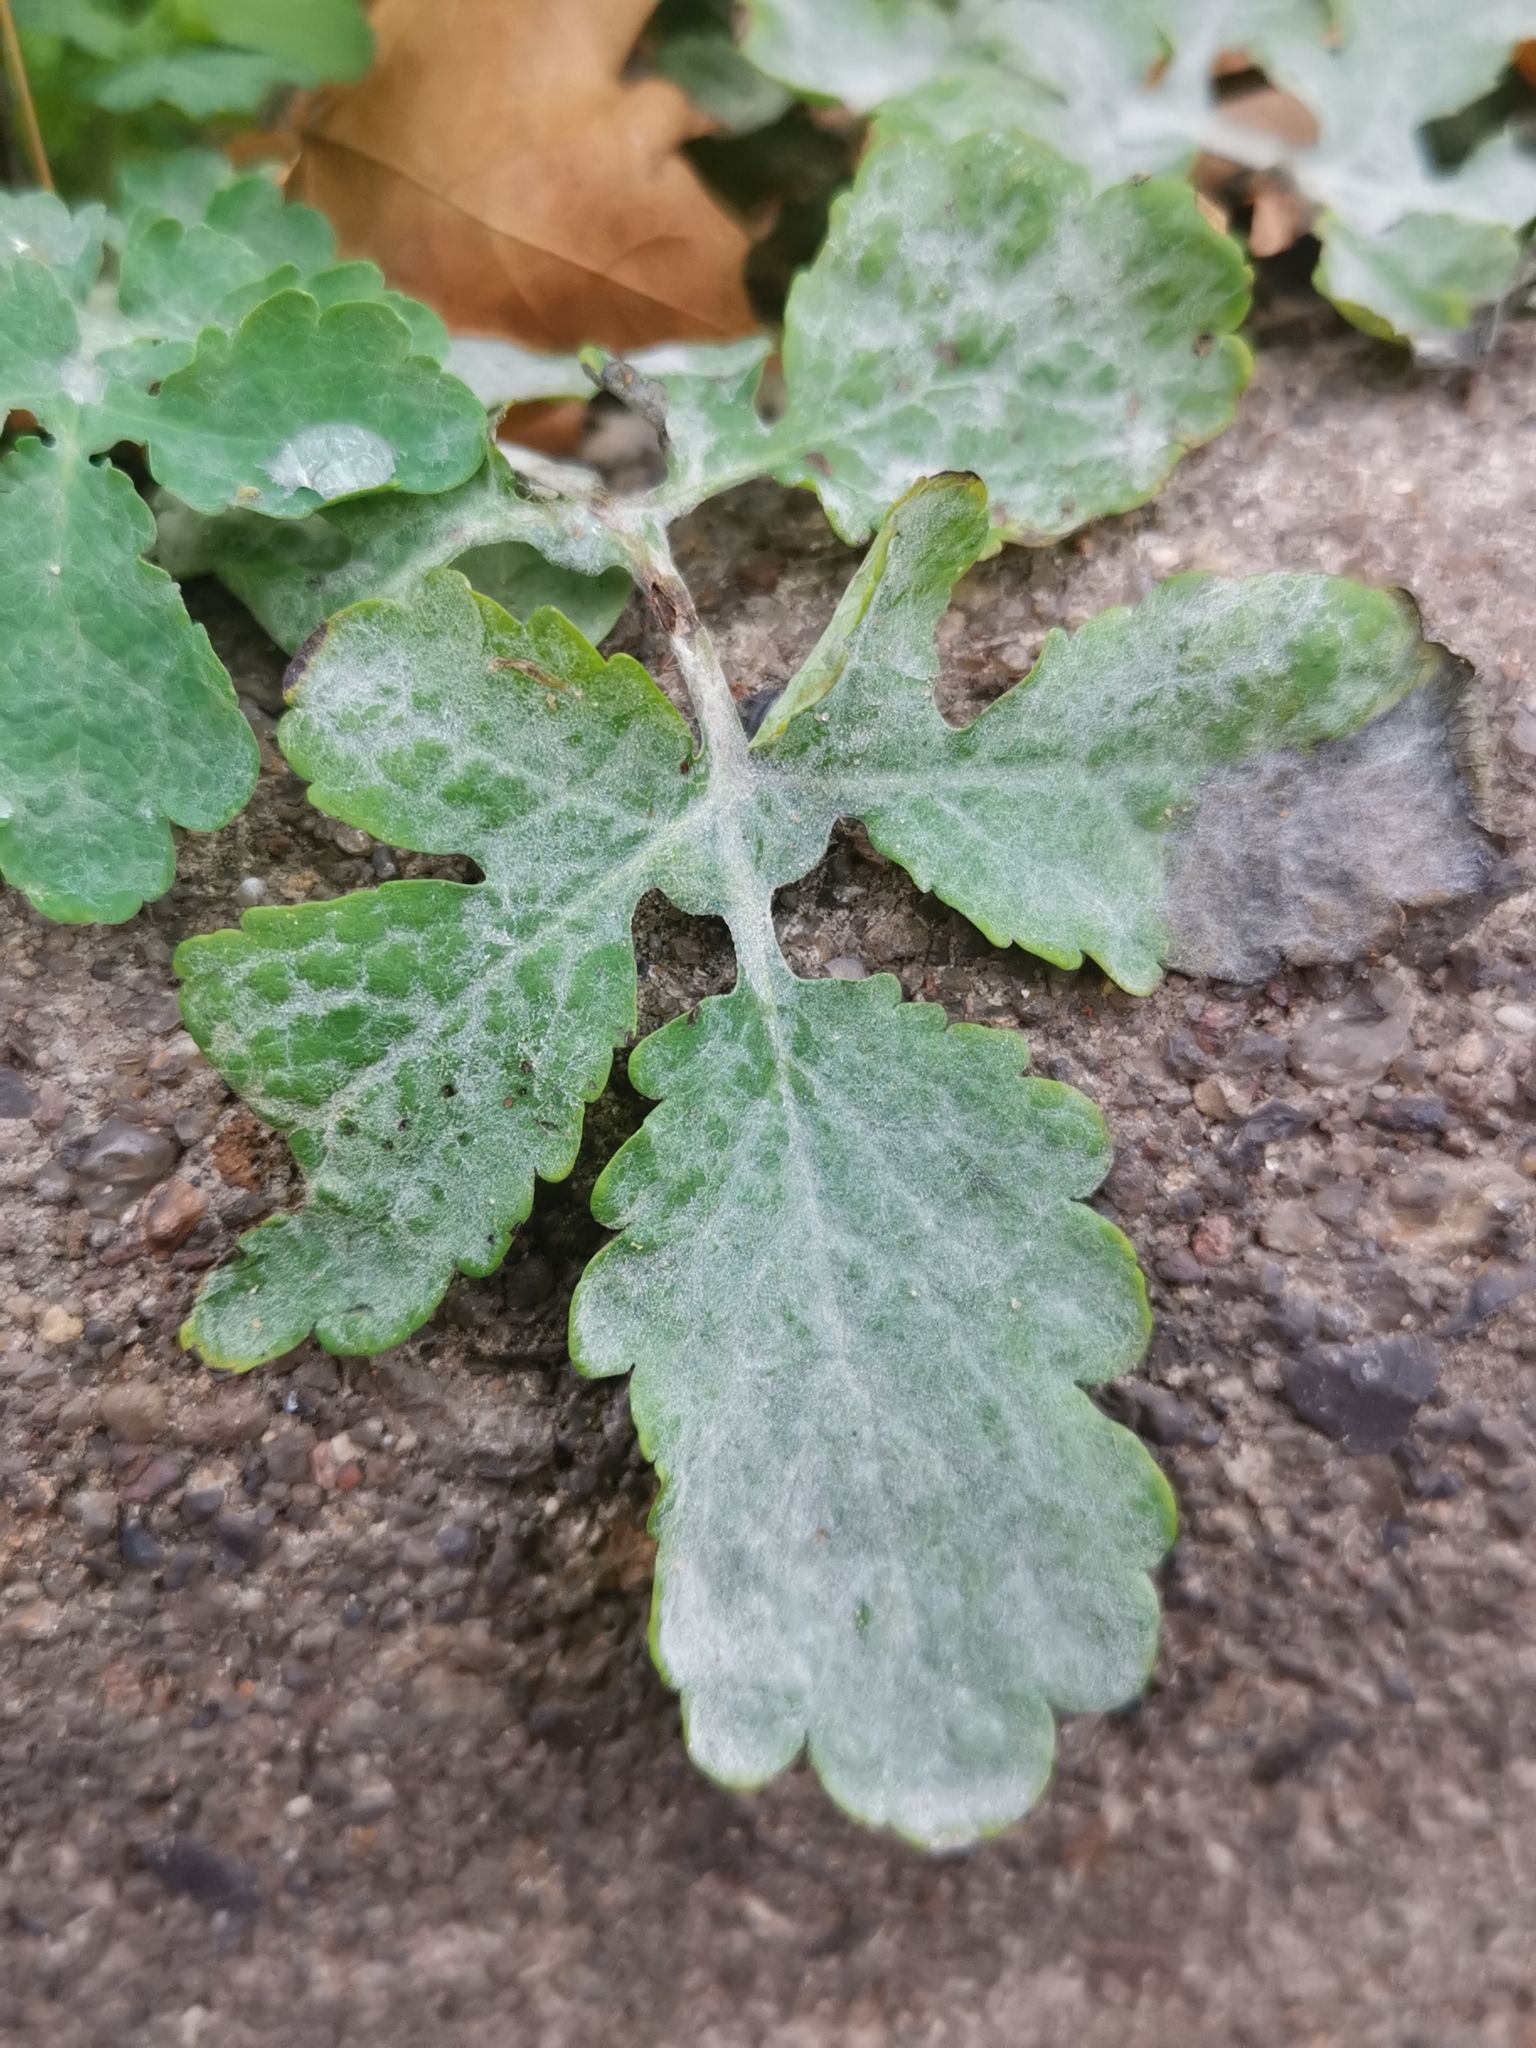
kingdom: Fungi
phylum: Ascomycota
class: Leotiomycetes
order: Helotiales
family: Erysiphaceae
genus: Erysiphe
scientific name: Erysiphe macleayae
